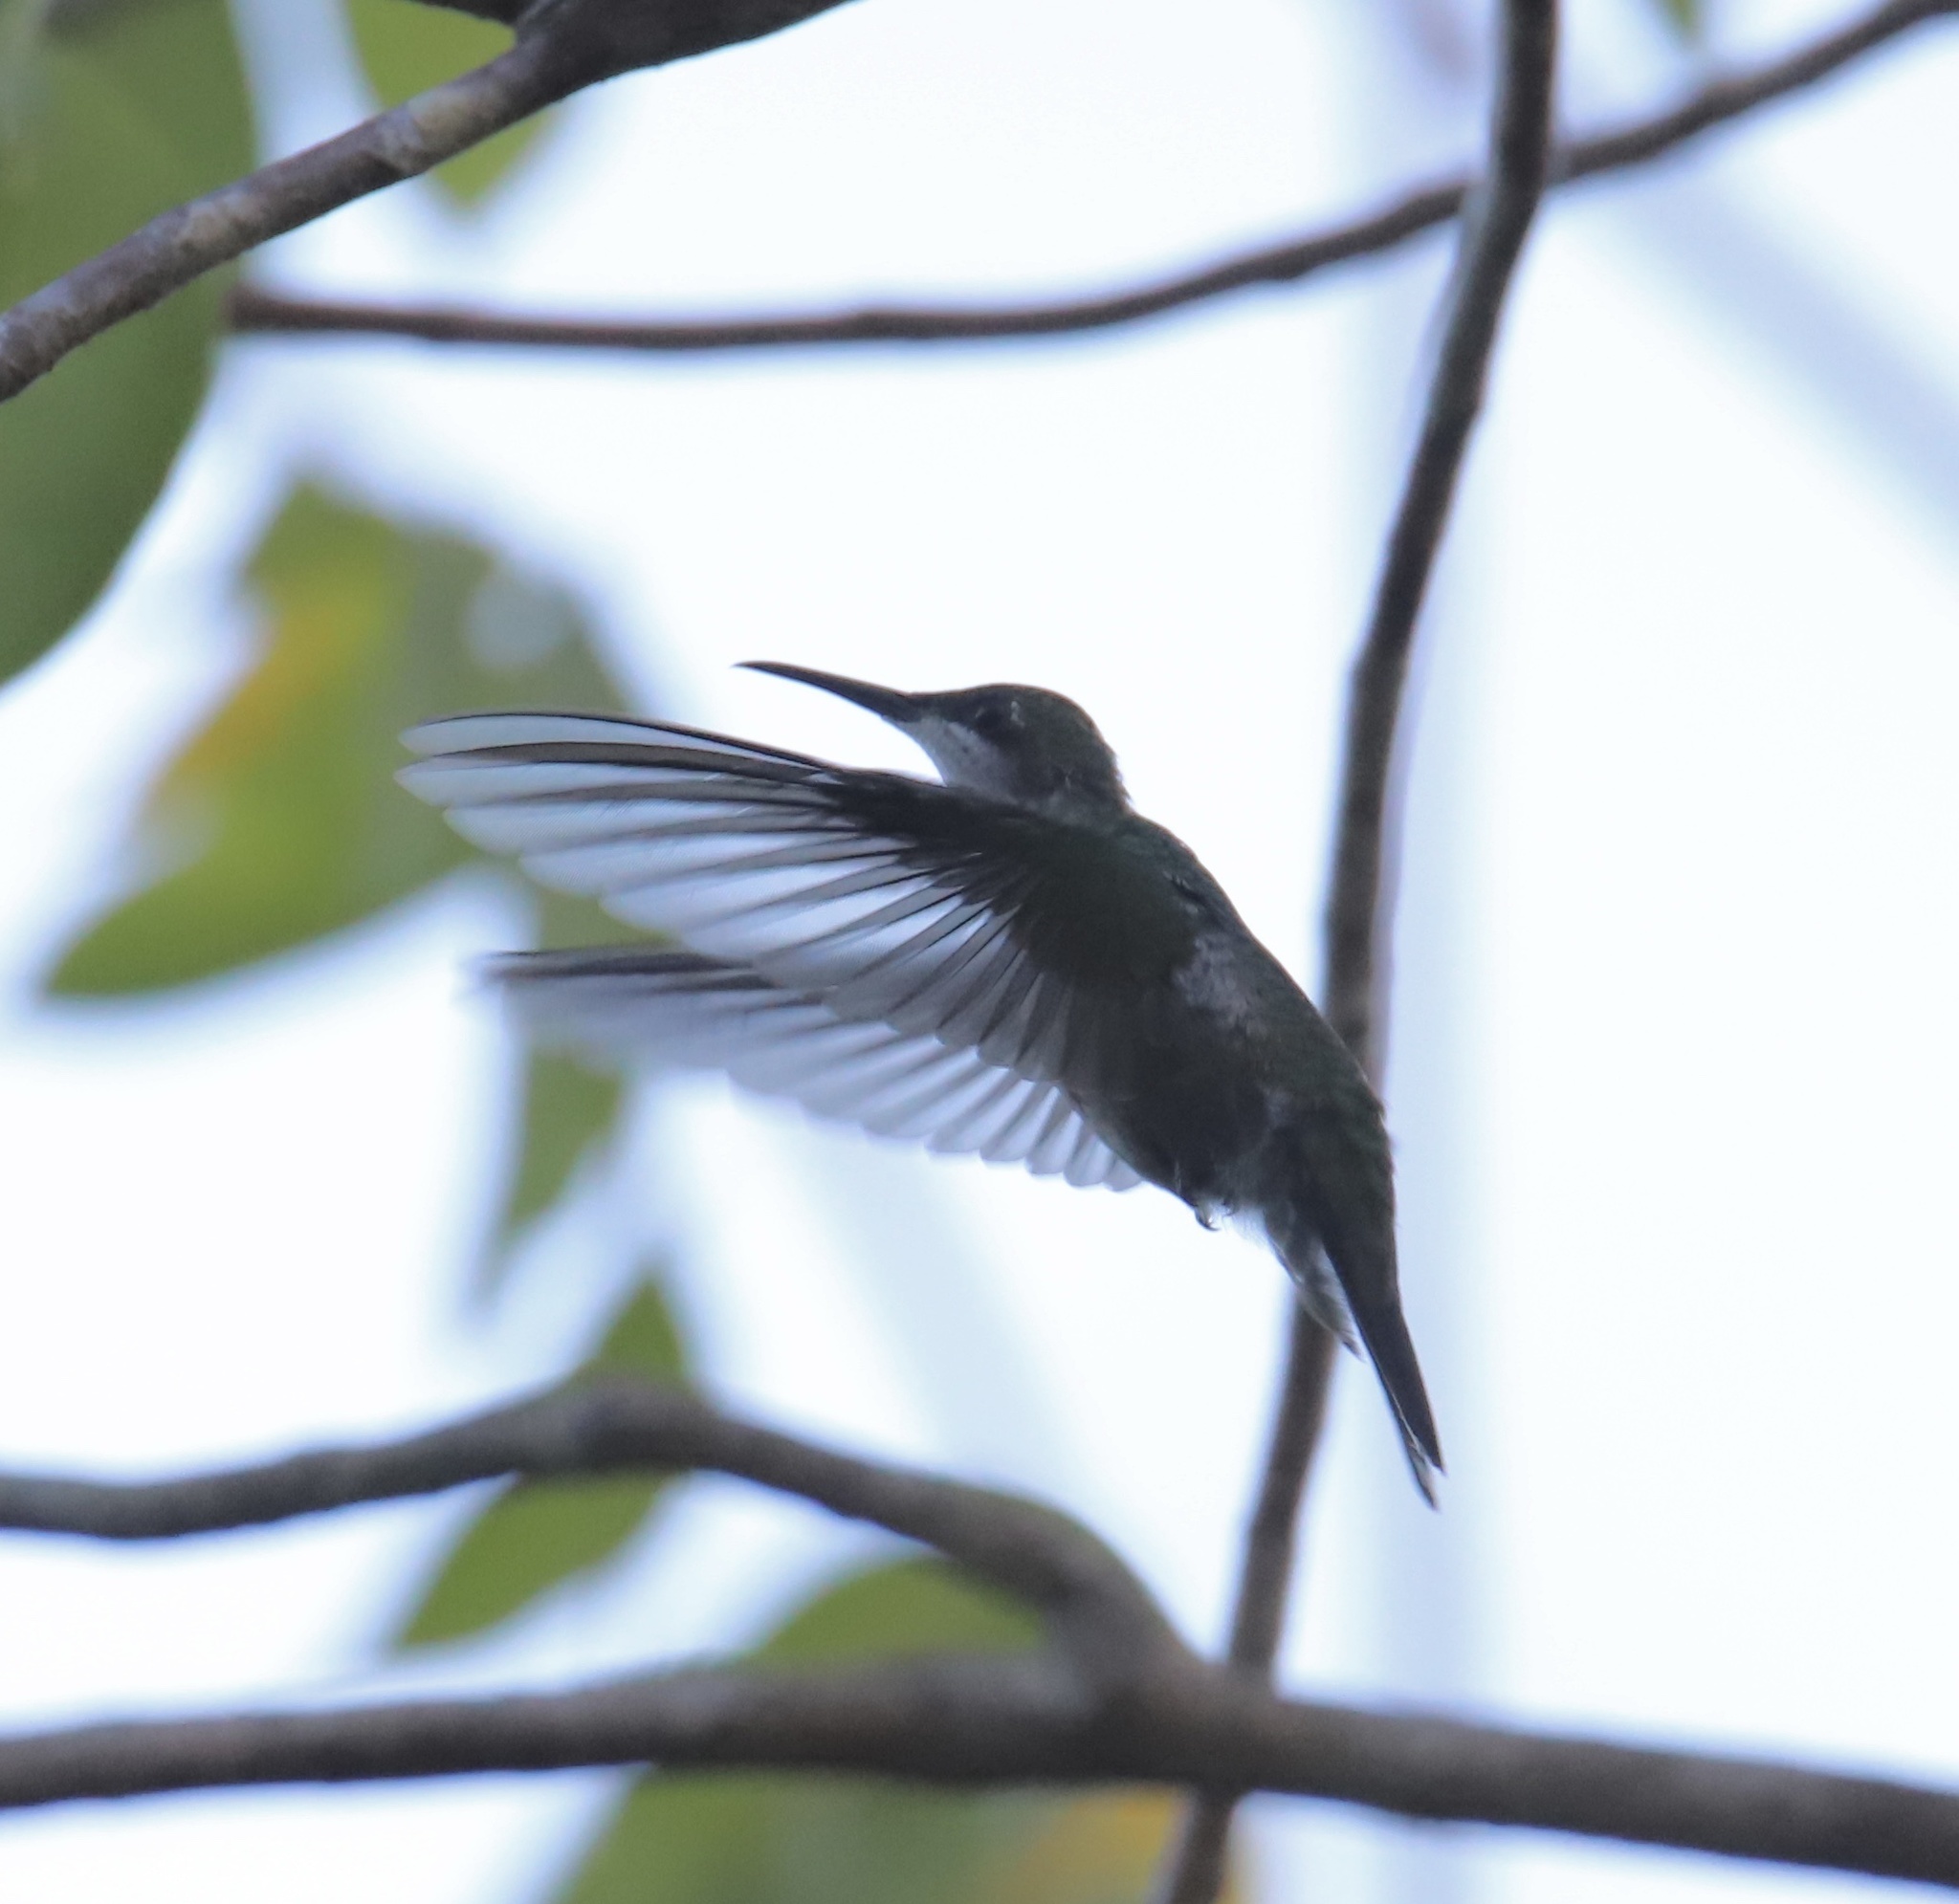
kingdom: Animalia
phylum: Chordata
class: Aves
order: Apodiformes
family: Trochilidae
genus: Anthracothorax
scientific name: Anthracothorax dominicus
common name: Antillean mango
